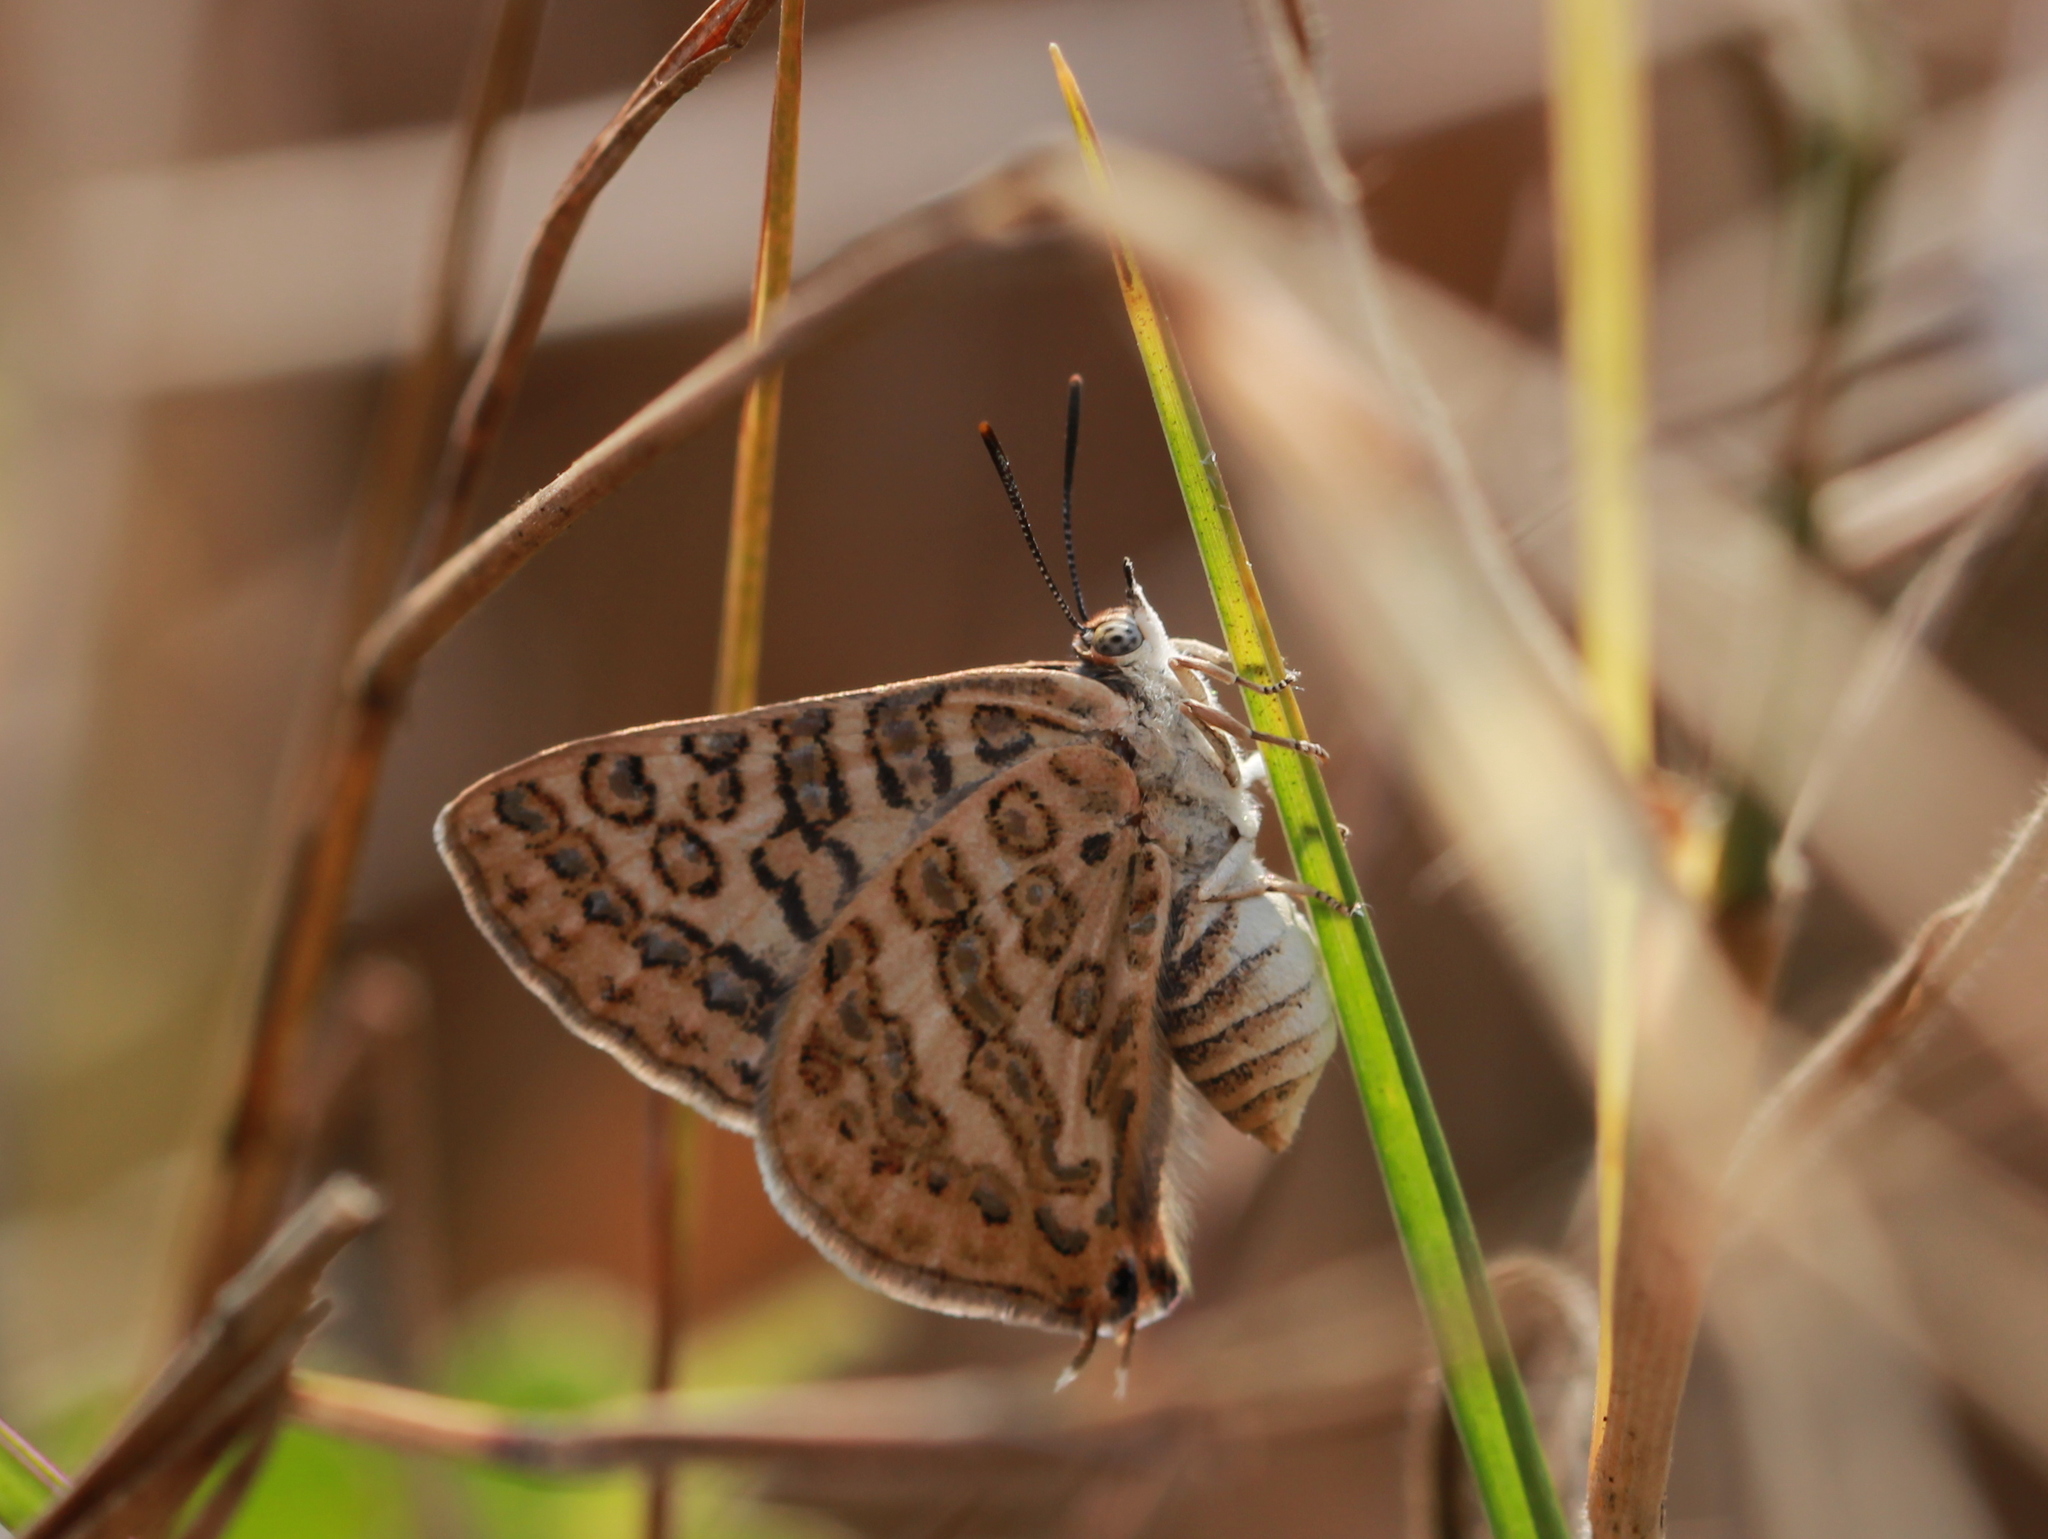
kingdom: Animalia
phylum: Arthropoda
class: Insecta
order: Lepidoptera
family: Lycaenidae
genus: Aphnaeus
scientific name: Aphnaeus lilacinus
